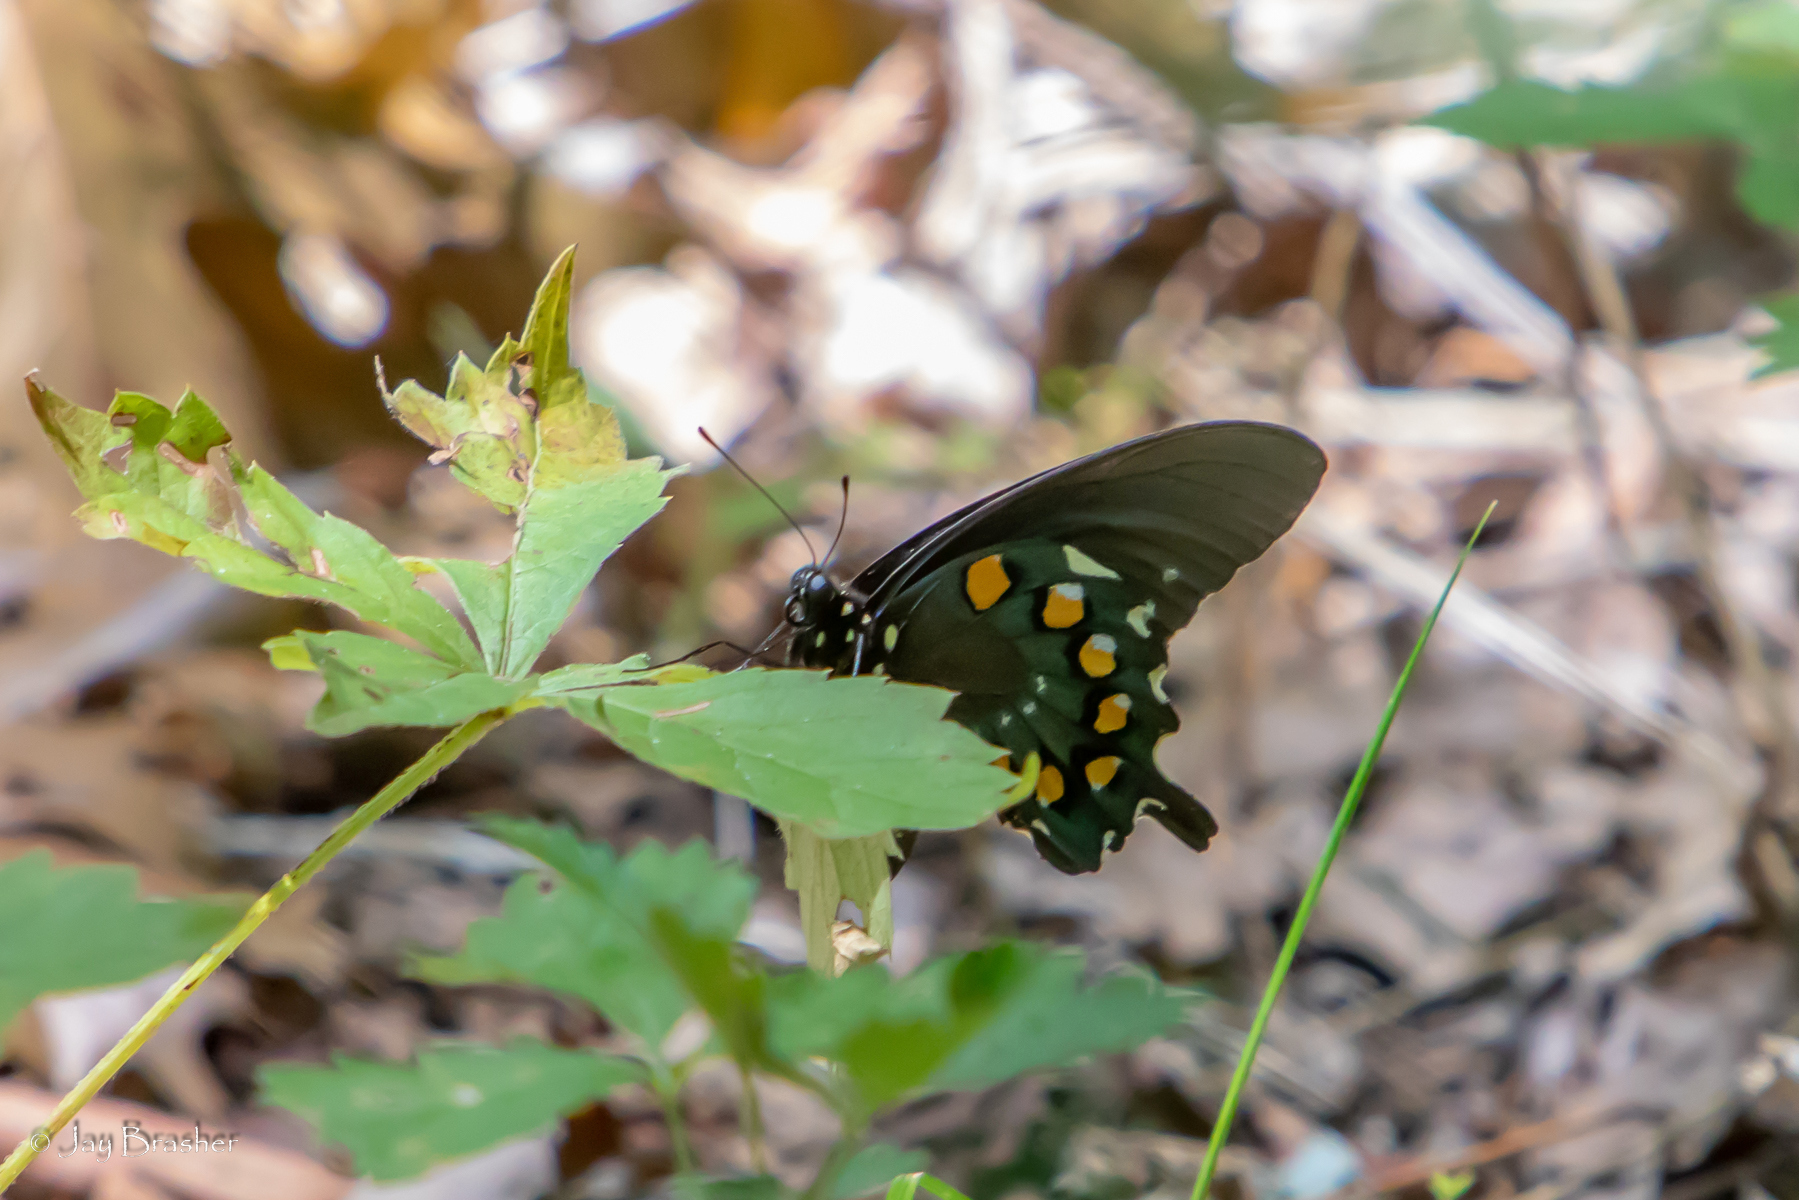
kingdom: Animalia
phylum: Arthropoda
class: Insecta
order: Lepidoptera
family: Papilionidae
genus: Battus
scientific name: Battus philenor
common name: Pipevine swallowtail
